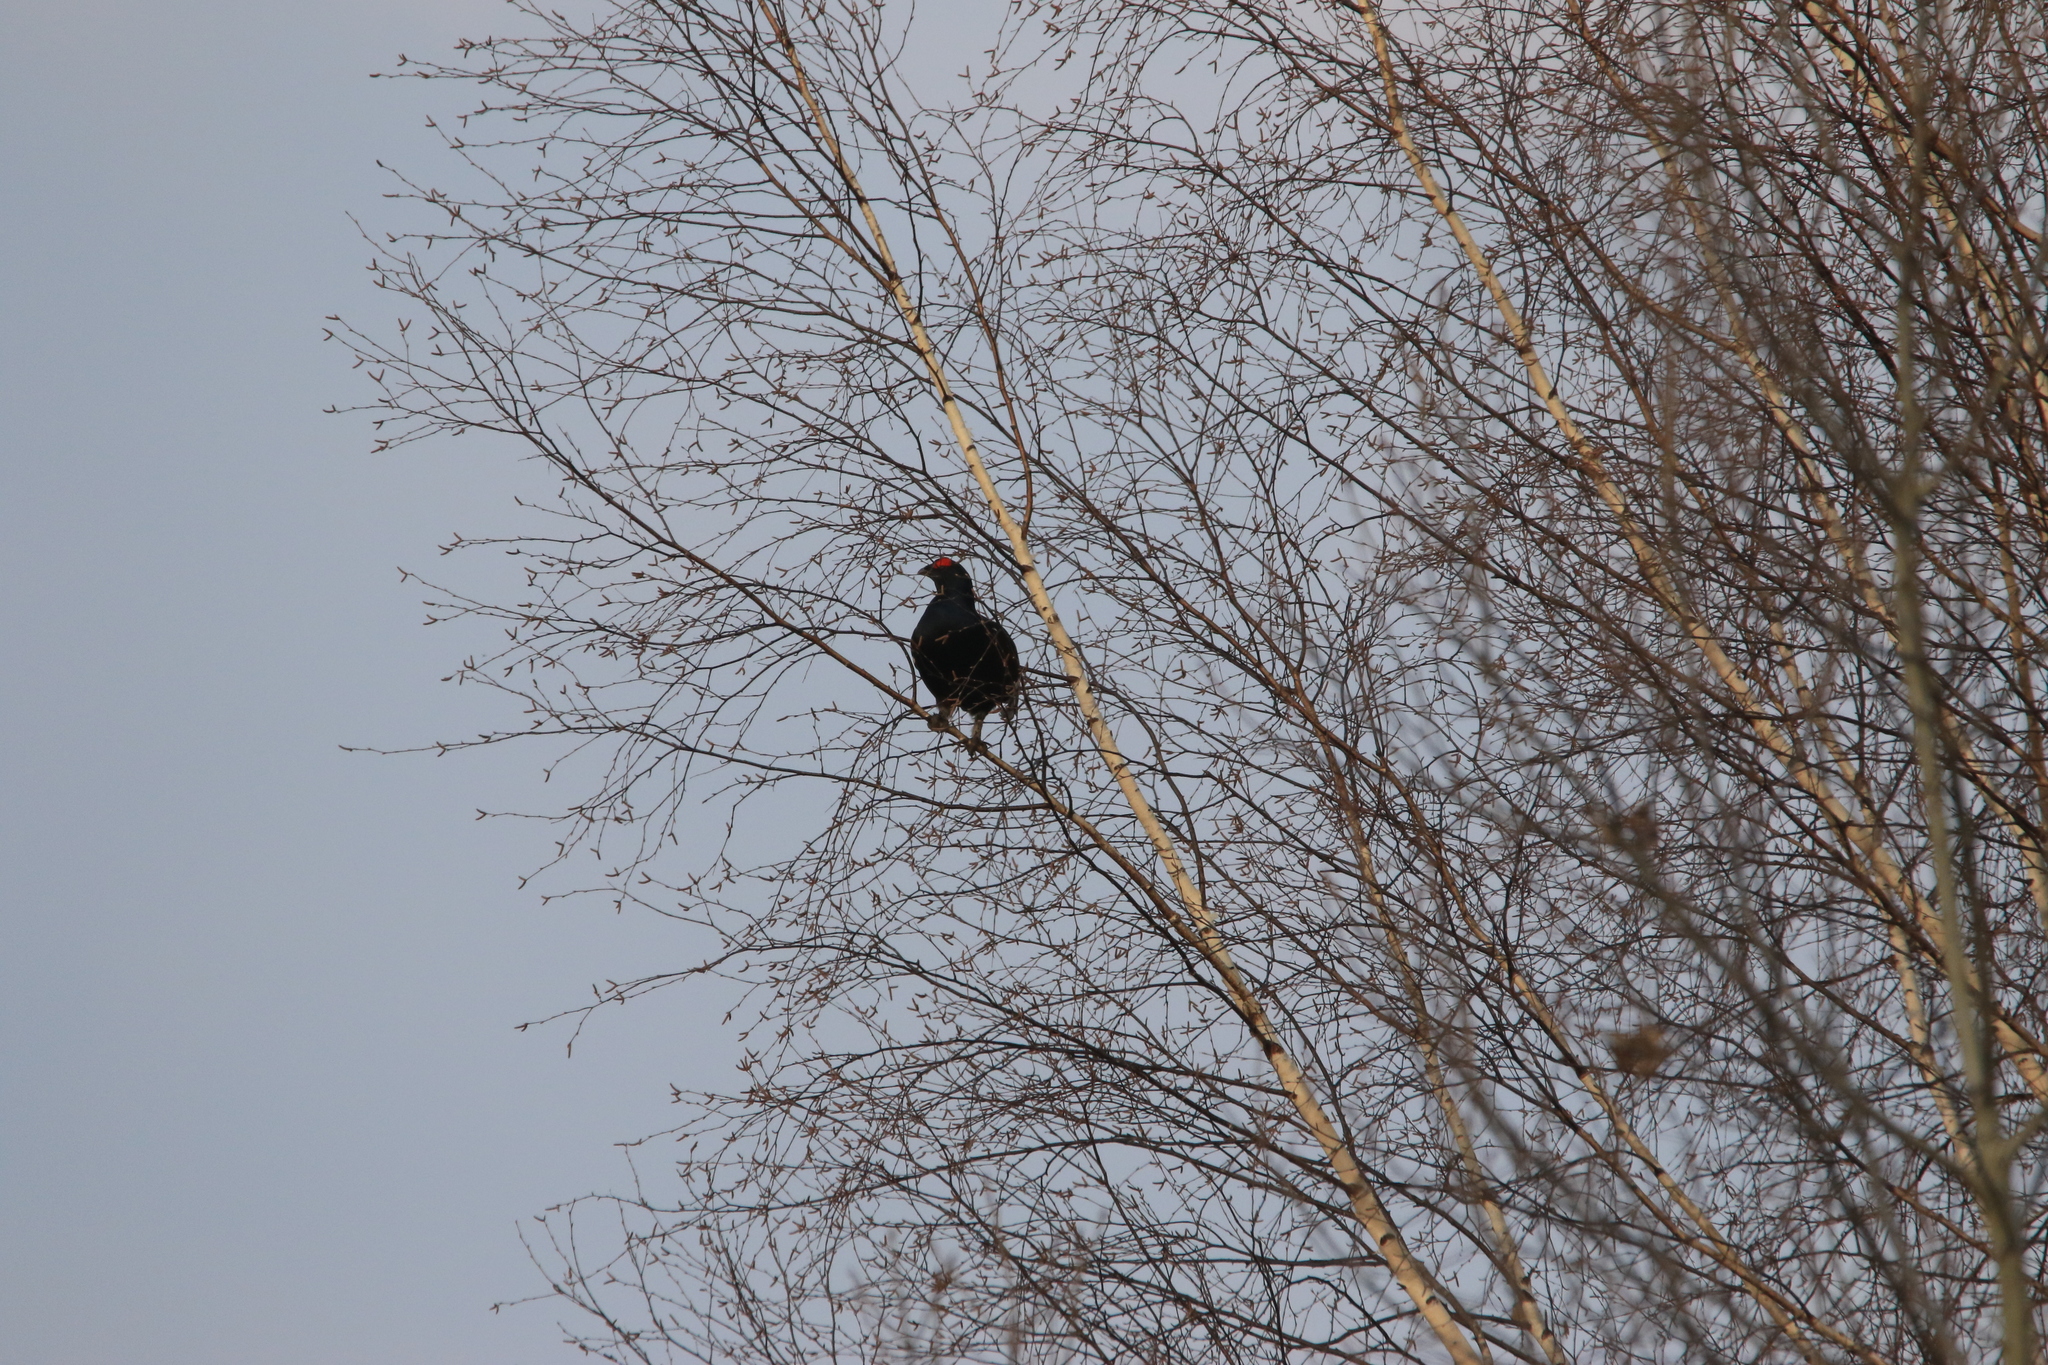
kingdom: Animalia
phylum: Chordata
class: Aves
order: Galliformes
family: Phasianidae
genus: Lyrurus
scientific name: Lyrurus tetrix
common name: Black grouse
